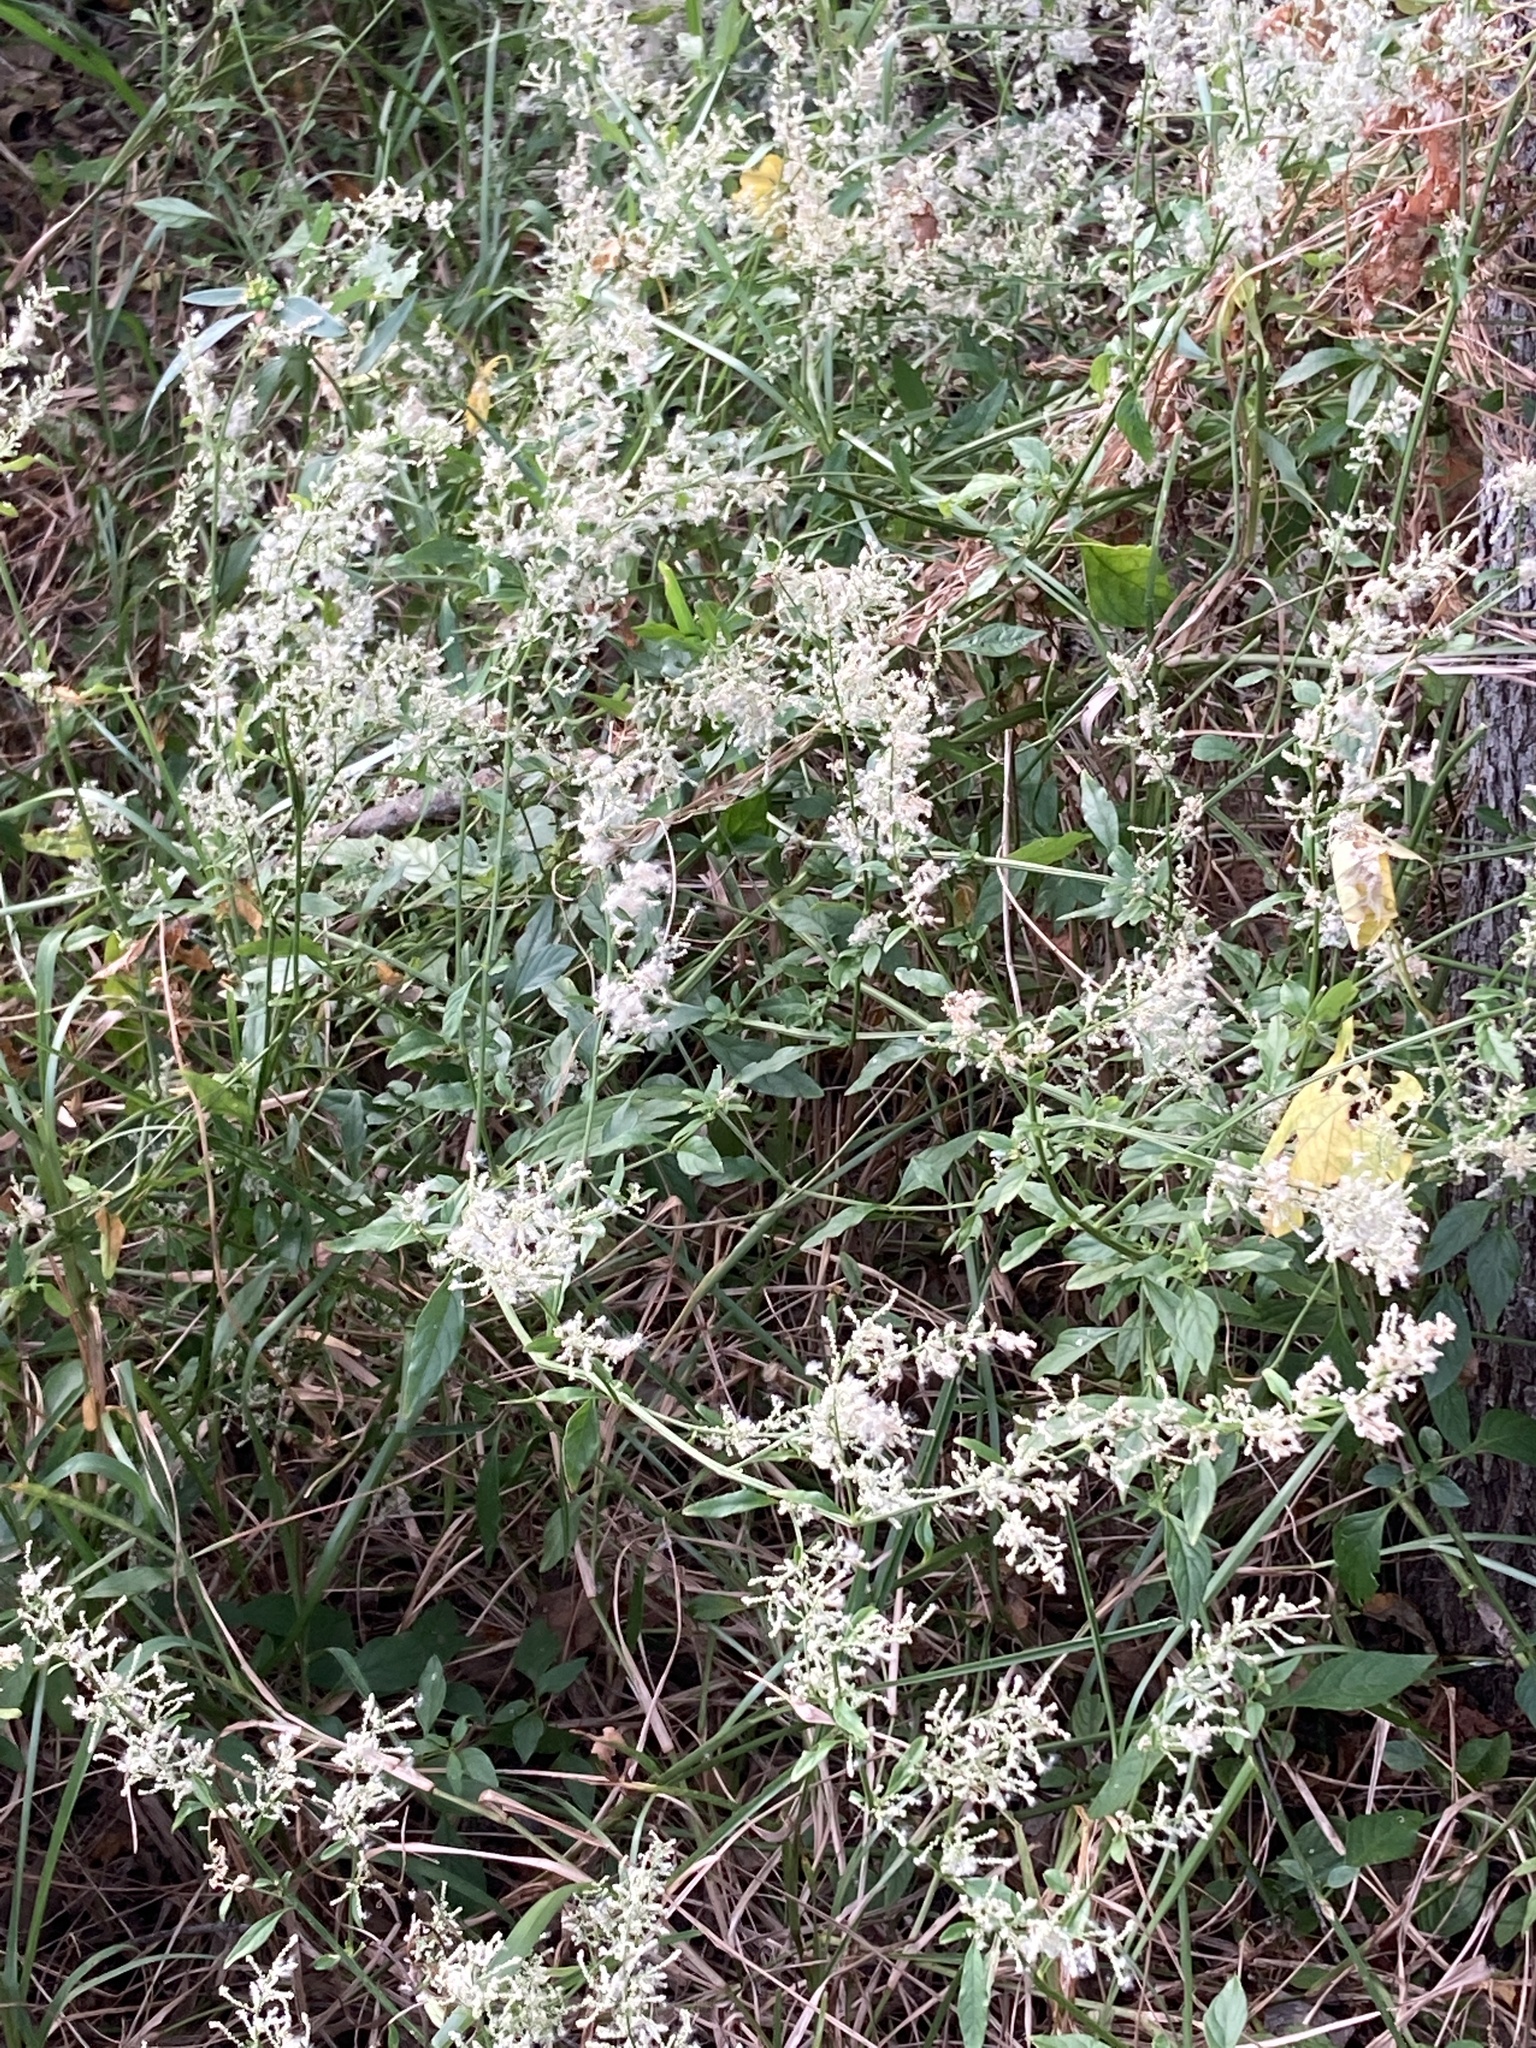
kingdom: Plantae
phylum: Tracheophyta
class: Magnoliopsida
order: Caryophyllales
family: Amaranthaceae
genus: Iresine
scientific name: Iresine diffusa
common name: Juba's-bush
